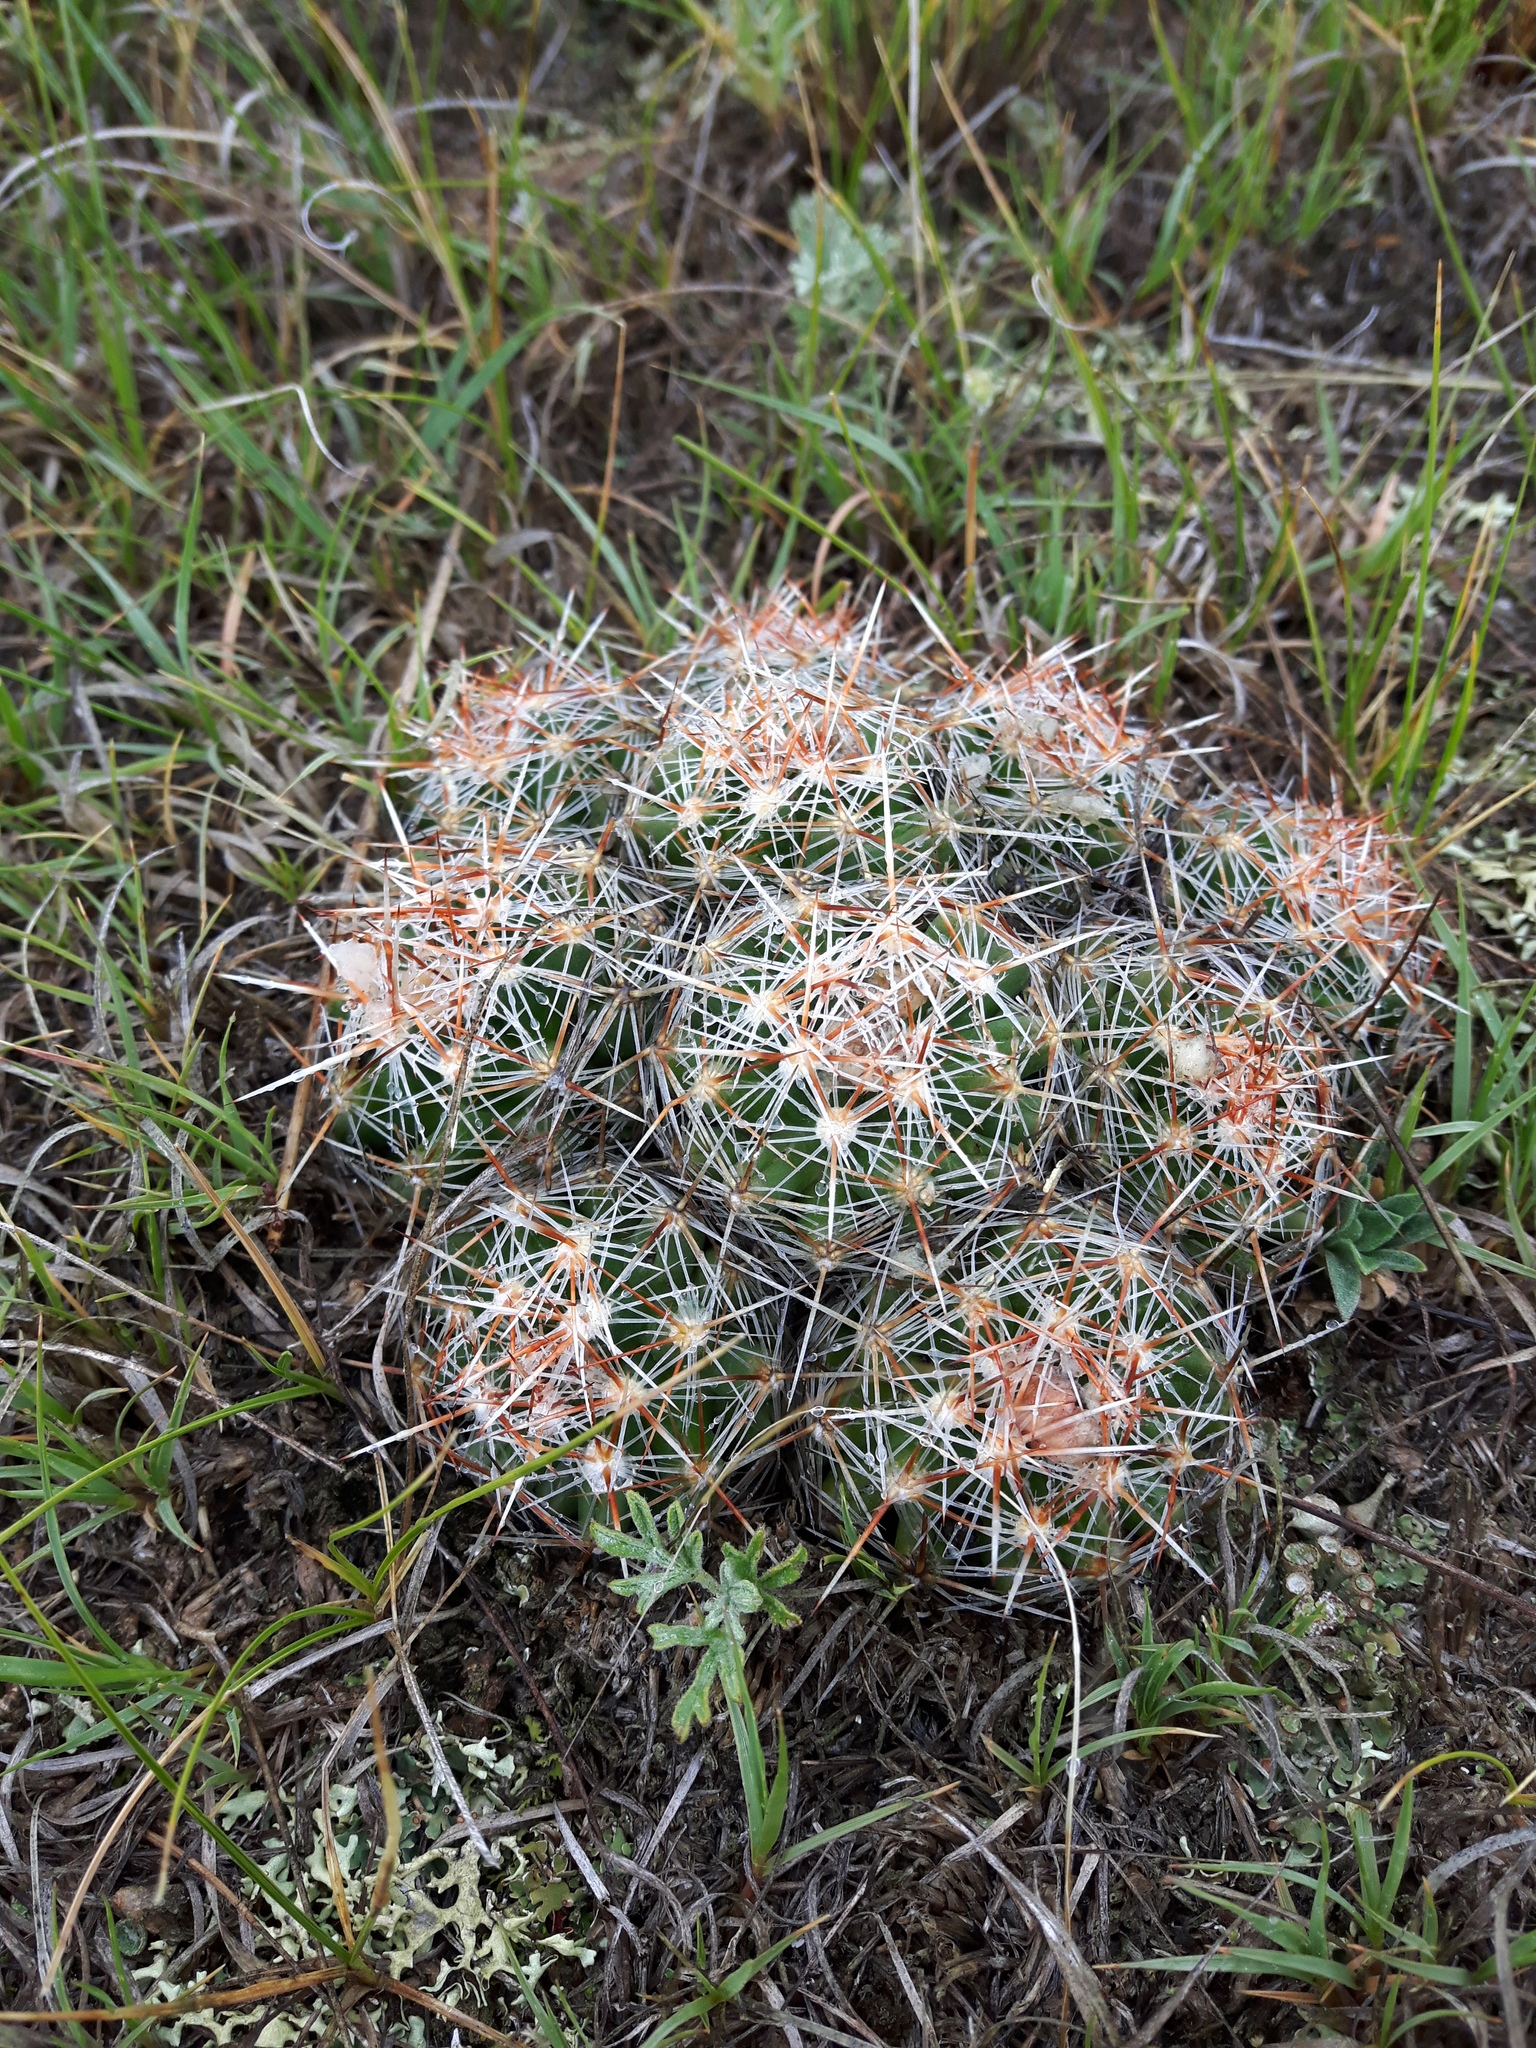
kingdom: Plantae
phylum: Tracheophyta
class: Magnoliopsida
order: Caryophyllales
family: Cactaceae
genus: Pelecyphora
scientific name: Pelecyphora vivipara
